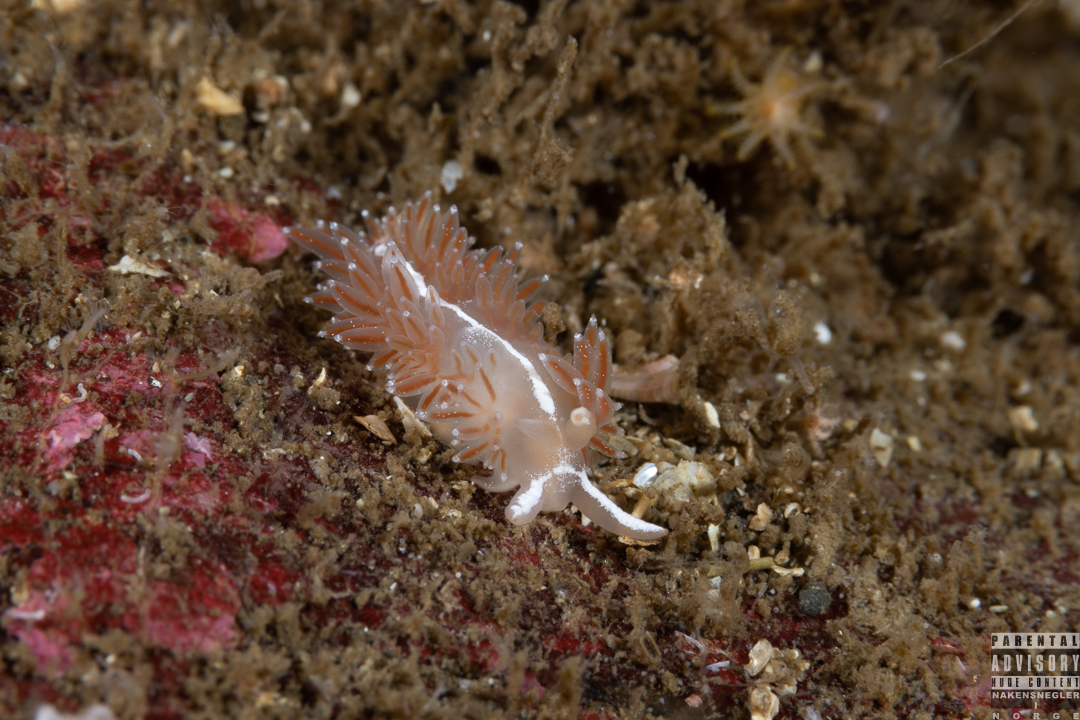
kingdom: Animalia
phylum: Mollusca
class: Gastropoda
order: Nudibranchia
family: Coryphellidae
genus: Coryphella
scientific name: Coryphella monicae
